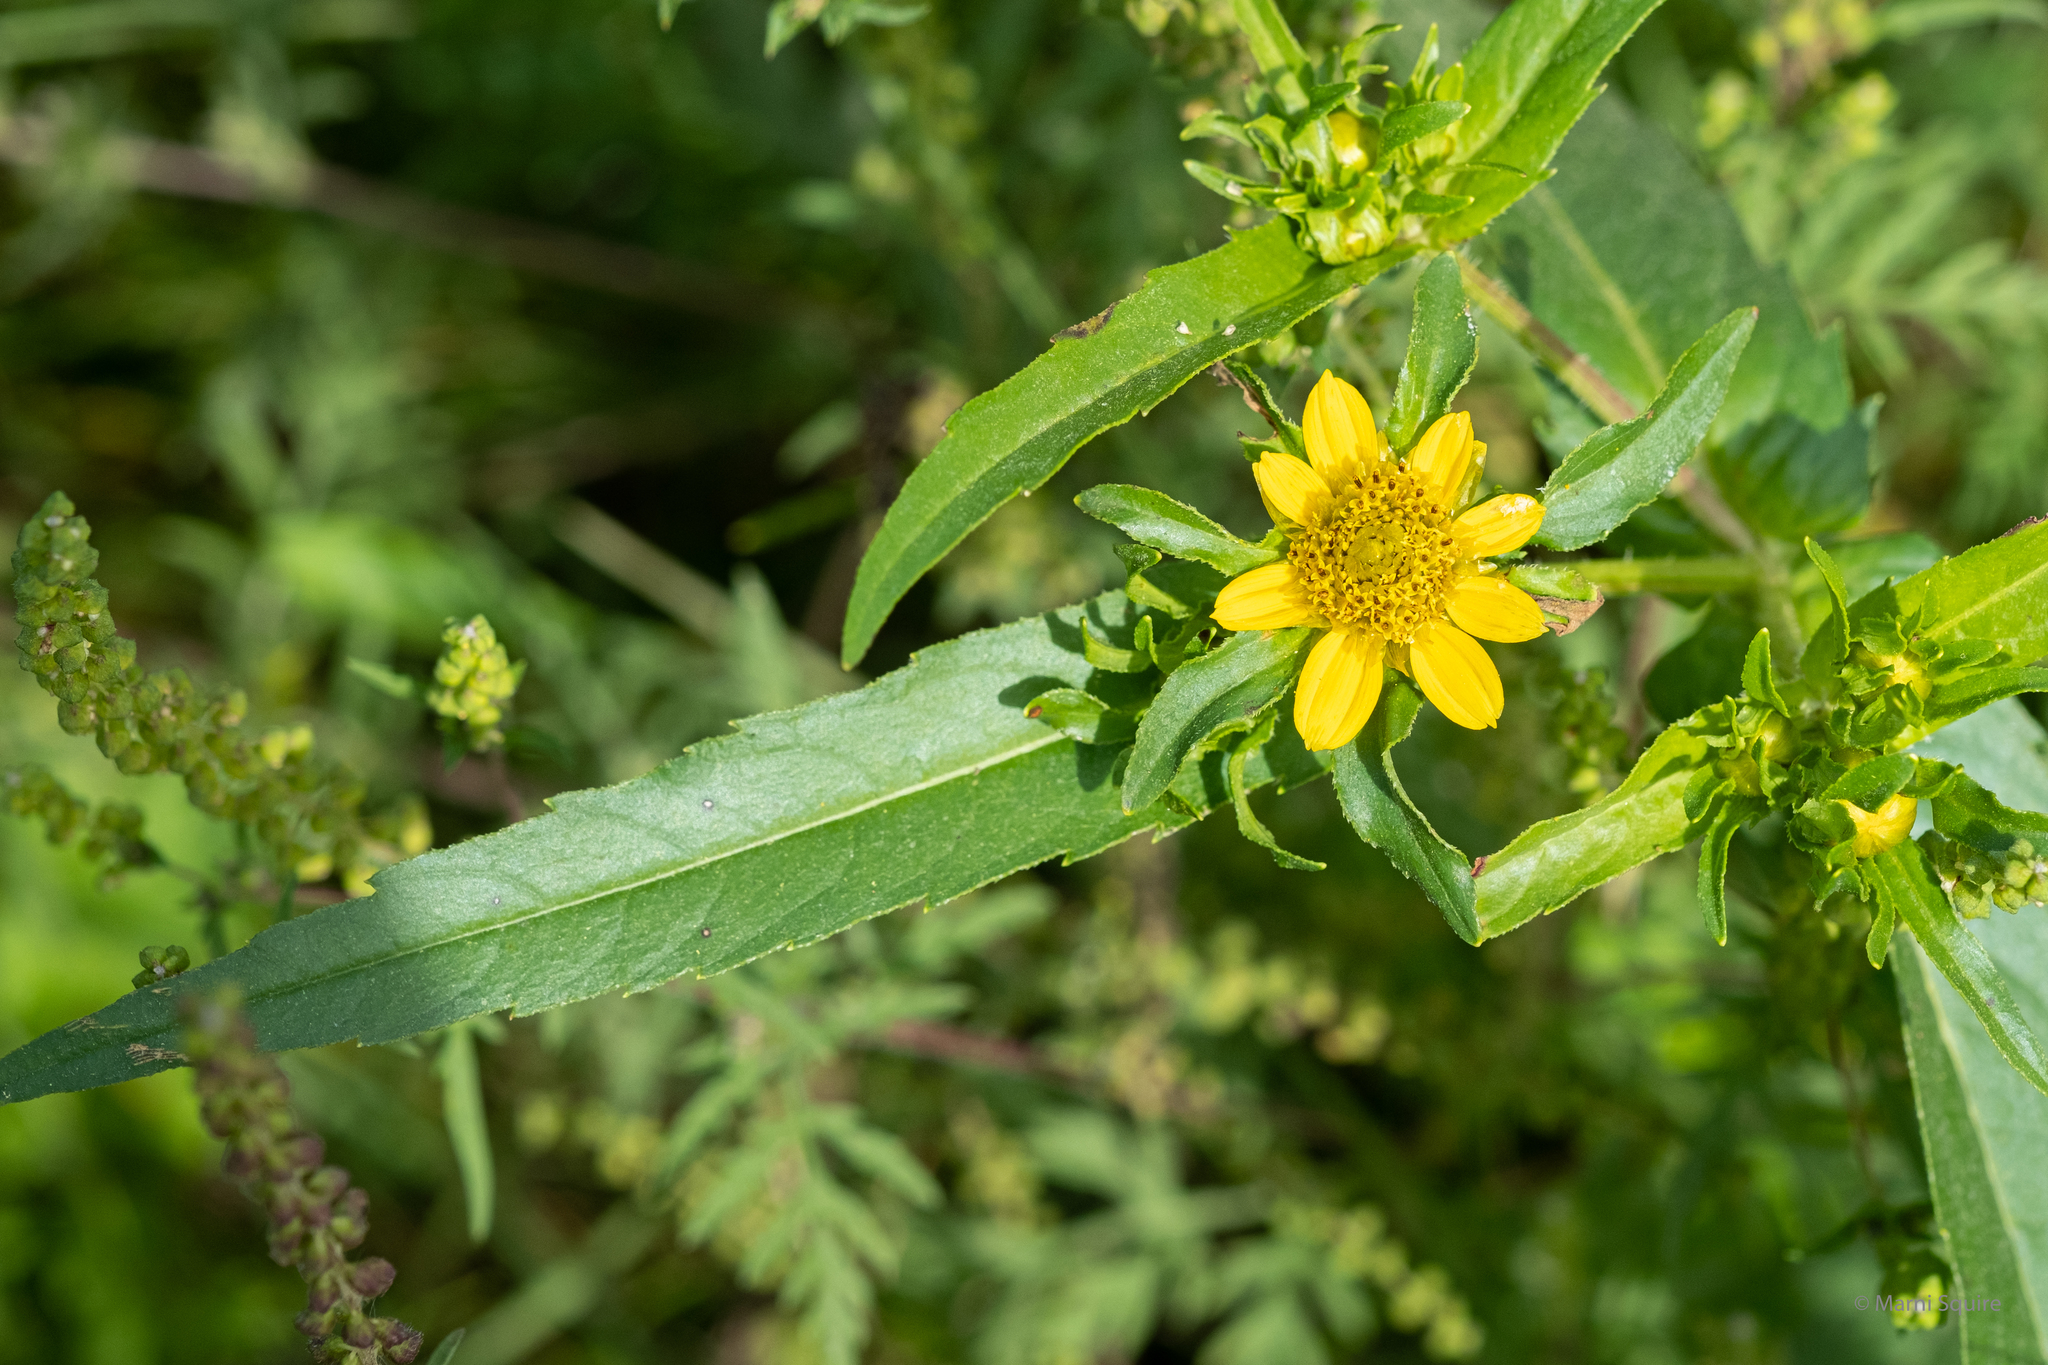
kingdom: Plantae
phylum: Tracheophyta
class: Magnoliopsida
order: Asterales
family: Asteraceae
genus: Bidens
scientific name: Bidens cernua
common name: Nodding bur-marigold
